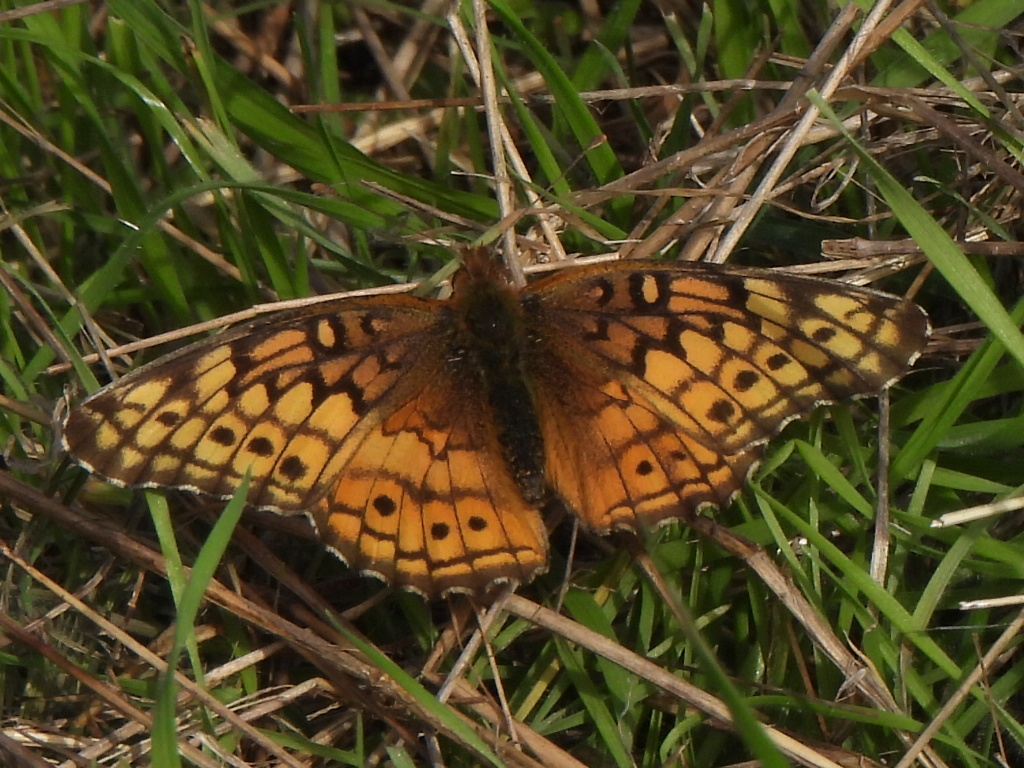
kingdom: Animalia
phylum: Arthropoda
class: Insecta
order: Lepidoptera
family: Nymphalidae
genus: Euptoieta
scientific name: Euptoieta claudia
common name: Variegated fritillary
